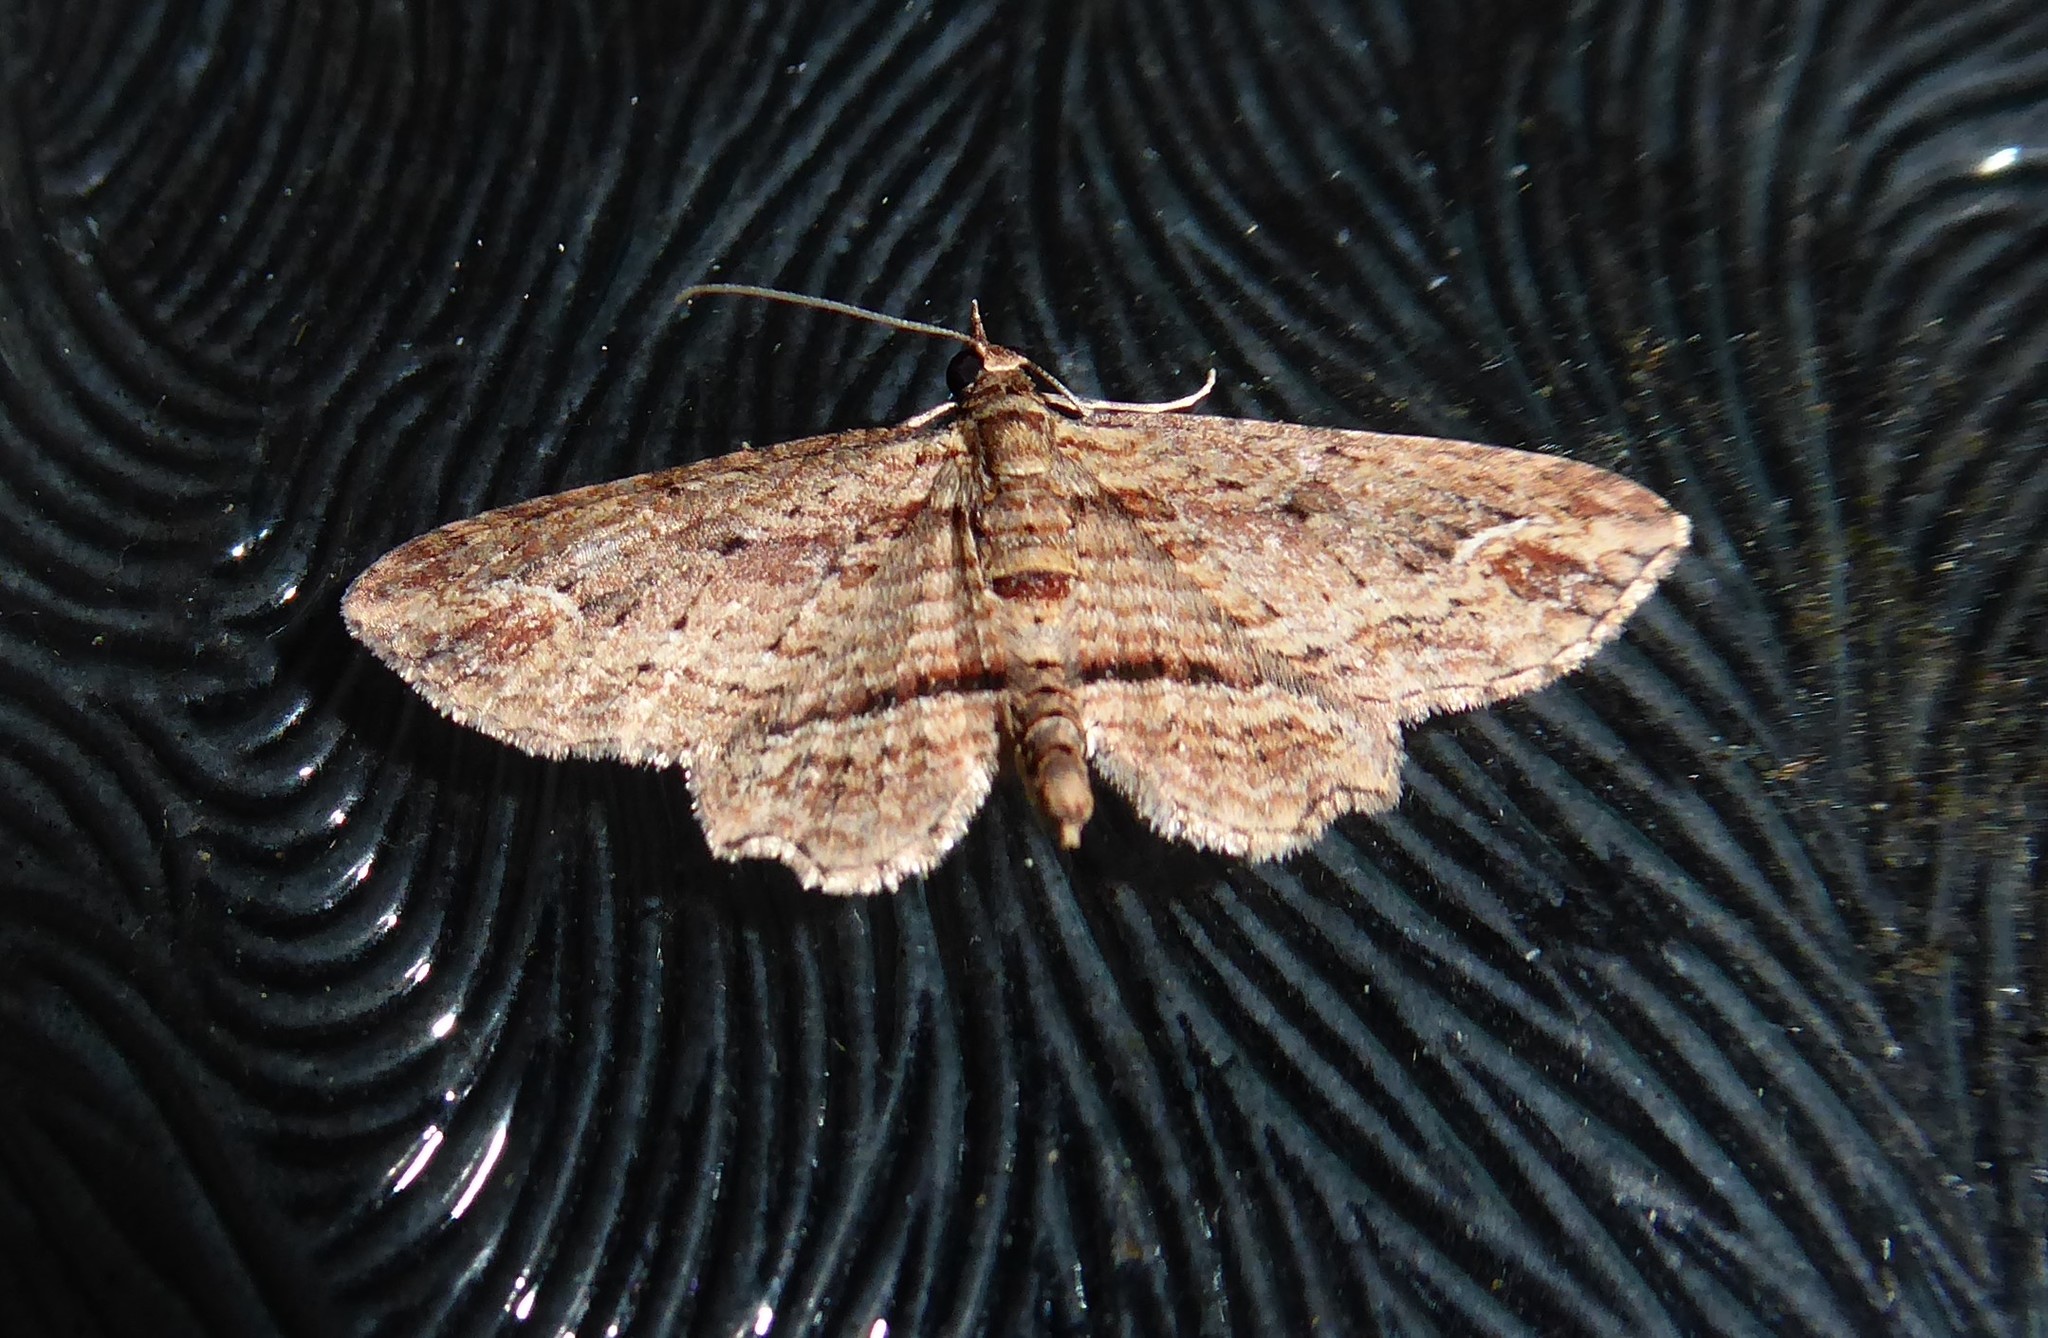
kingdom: Animalia
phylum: Arthropoda
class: Insecta
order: Lepidoptera
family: Geometridae
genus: Chloroclystis
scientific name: Chloroclystis filata
